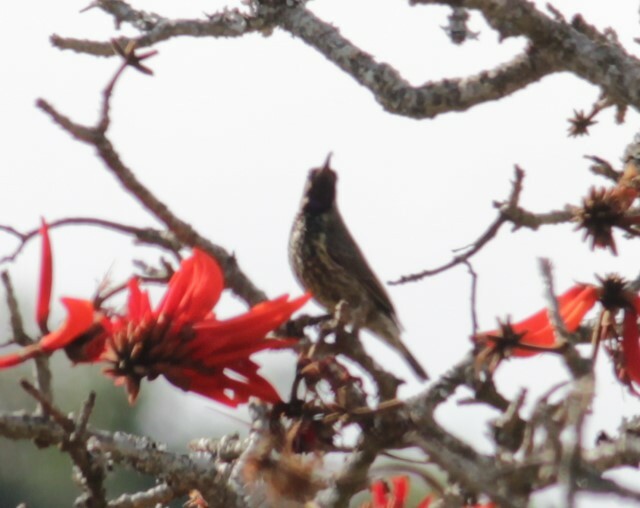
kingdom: Animalia
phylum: Chordata
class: Aves
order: Passeriformes
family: Nectariniidae
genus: Chalcomitra
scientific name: Chalcomitra senegalensis
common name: Scarlet-chested sunbird
